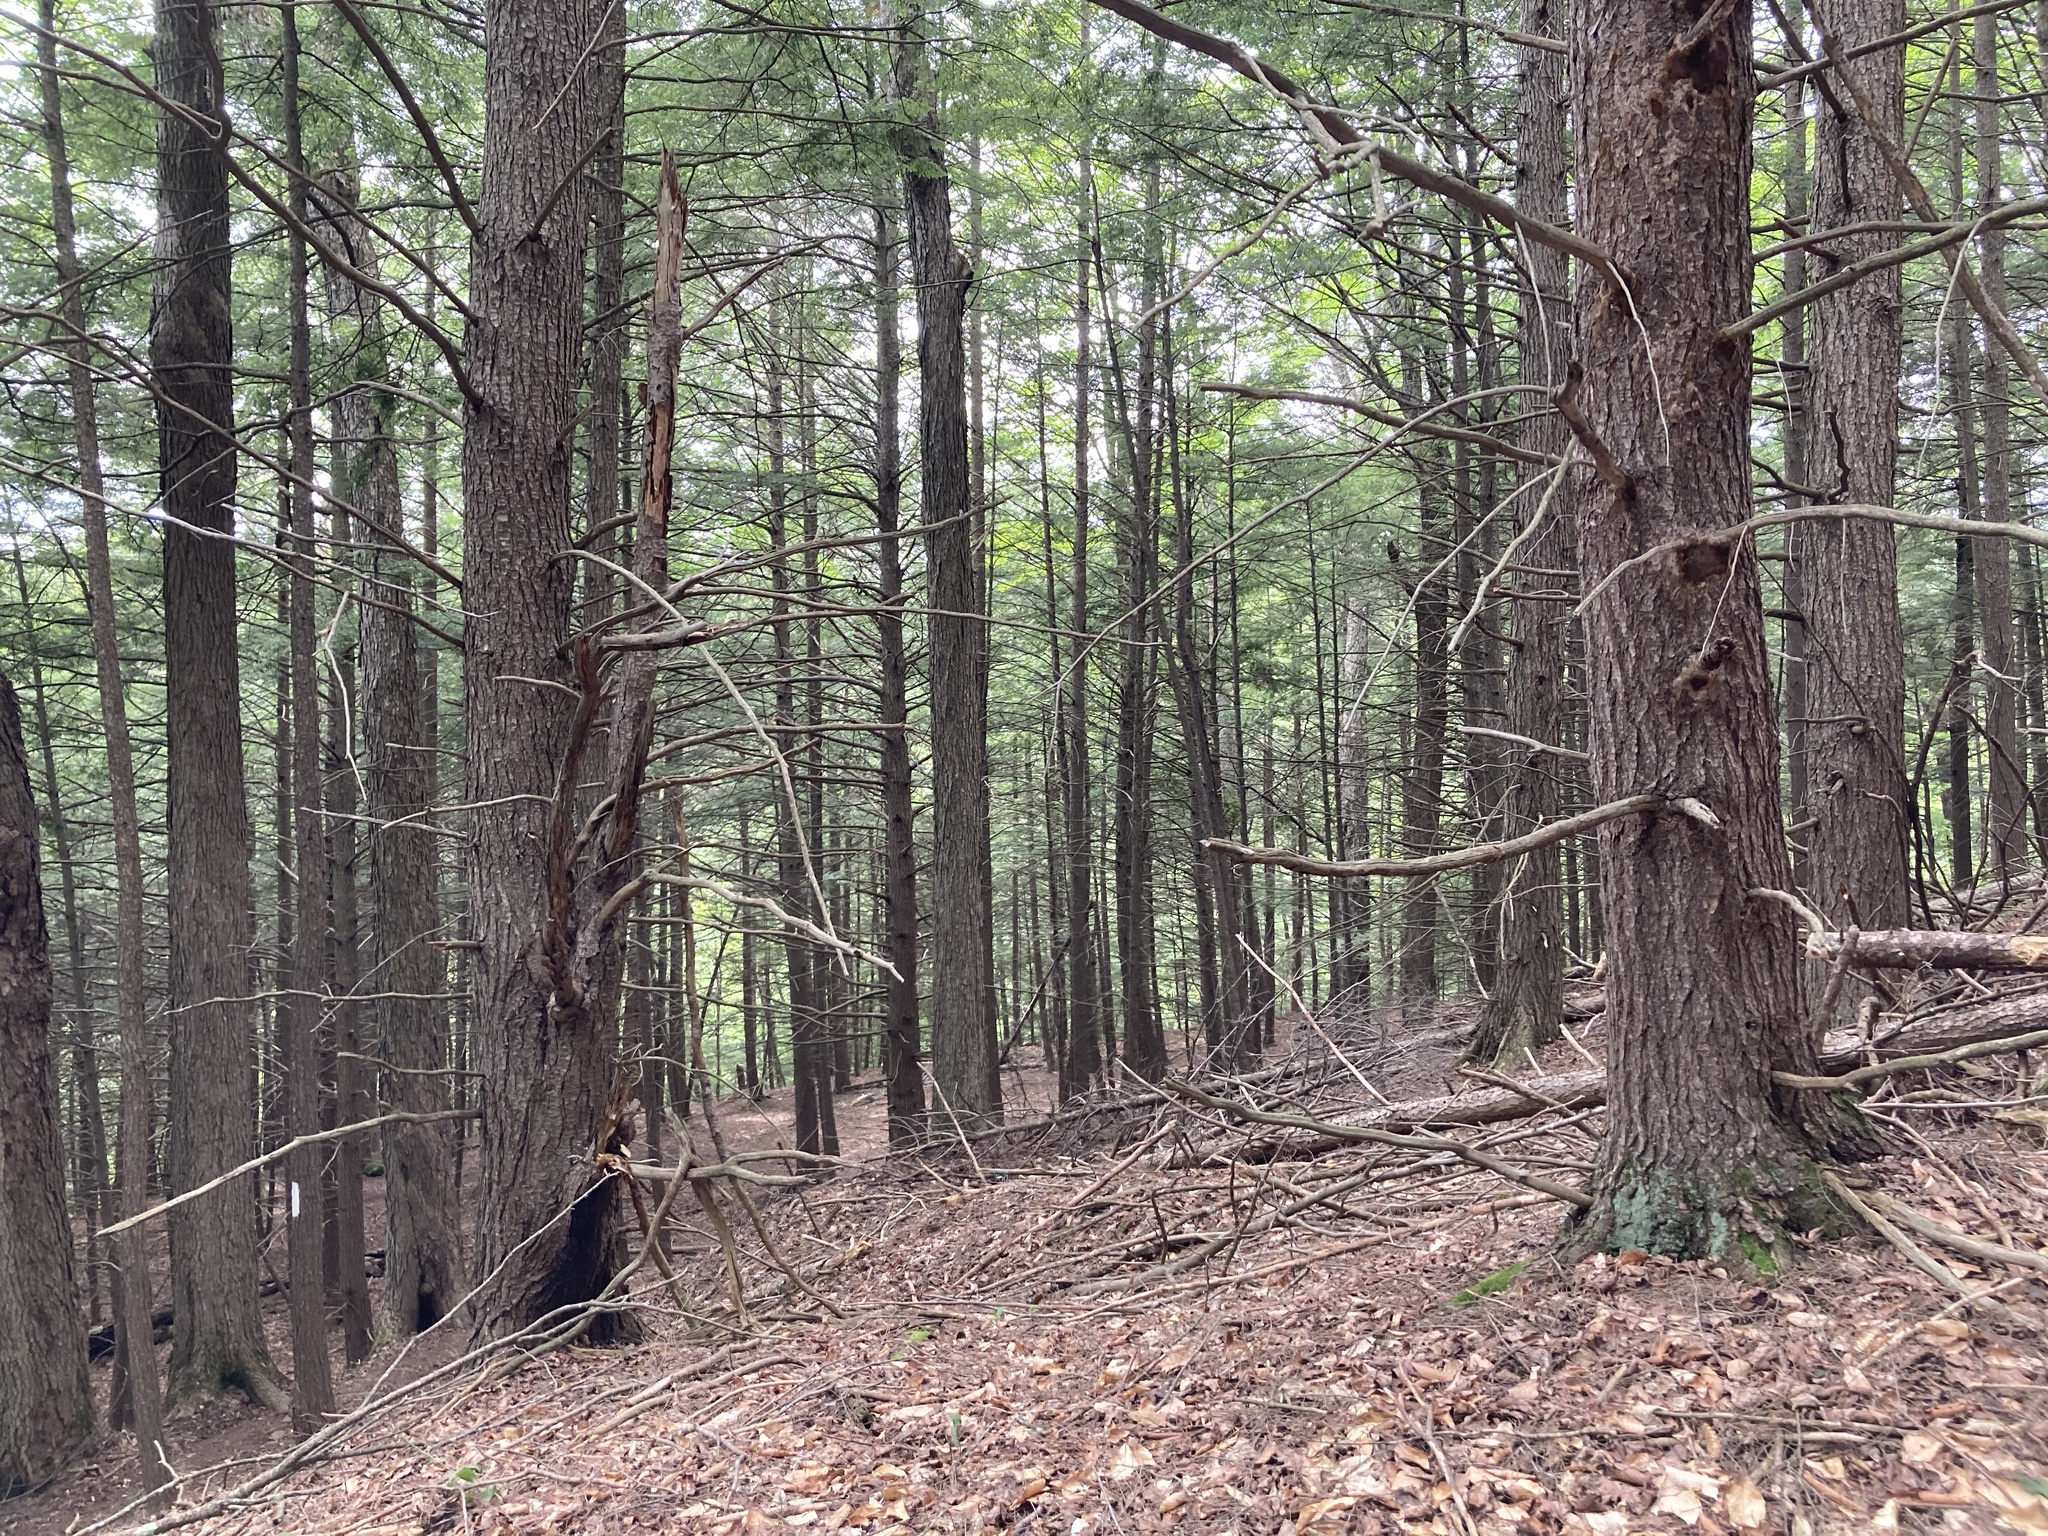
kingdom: Plantae
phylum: Tracheophyta
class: Pinopsida
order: Pinales
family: Pinaceae
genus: Tsuga
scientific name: Tsuga canadensis
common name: Eastern hemlock
